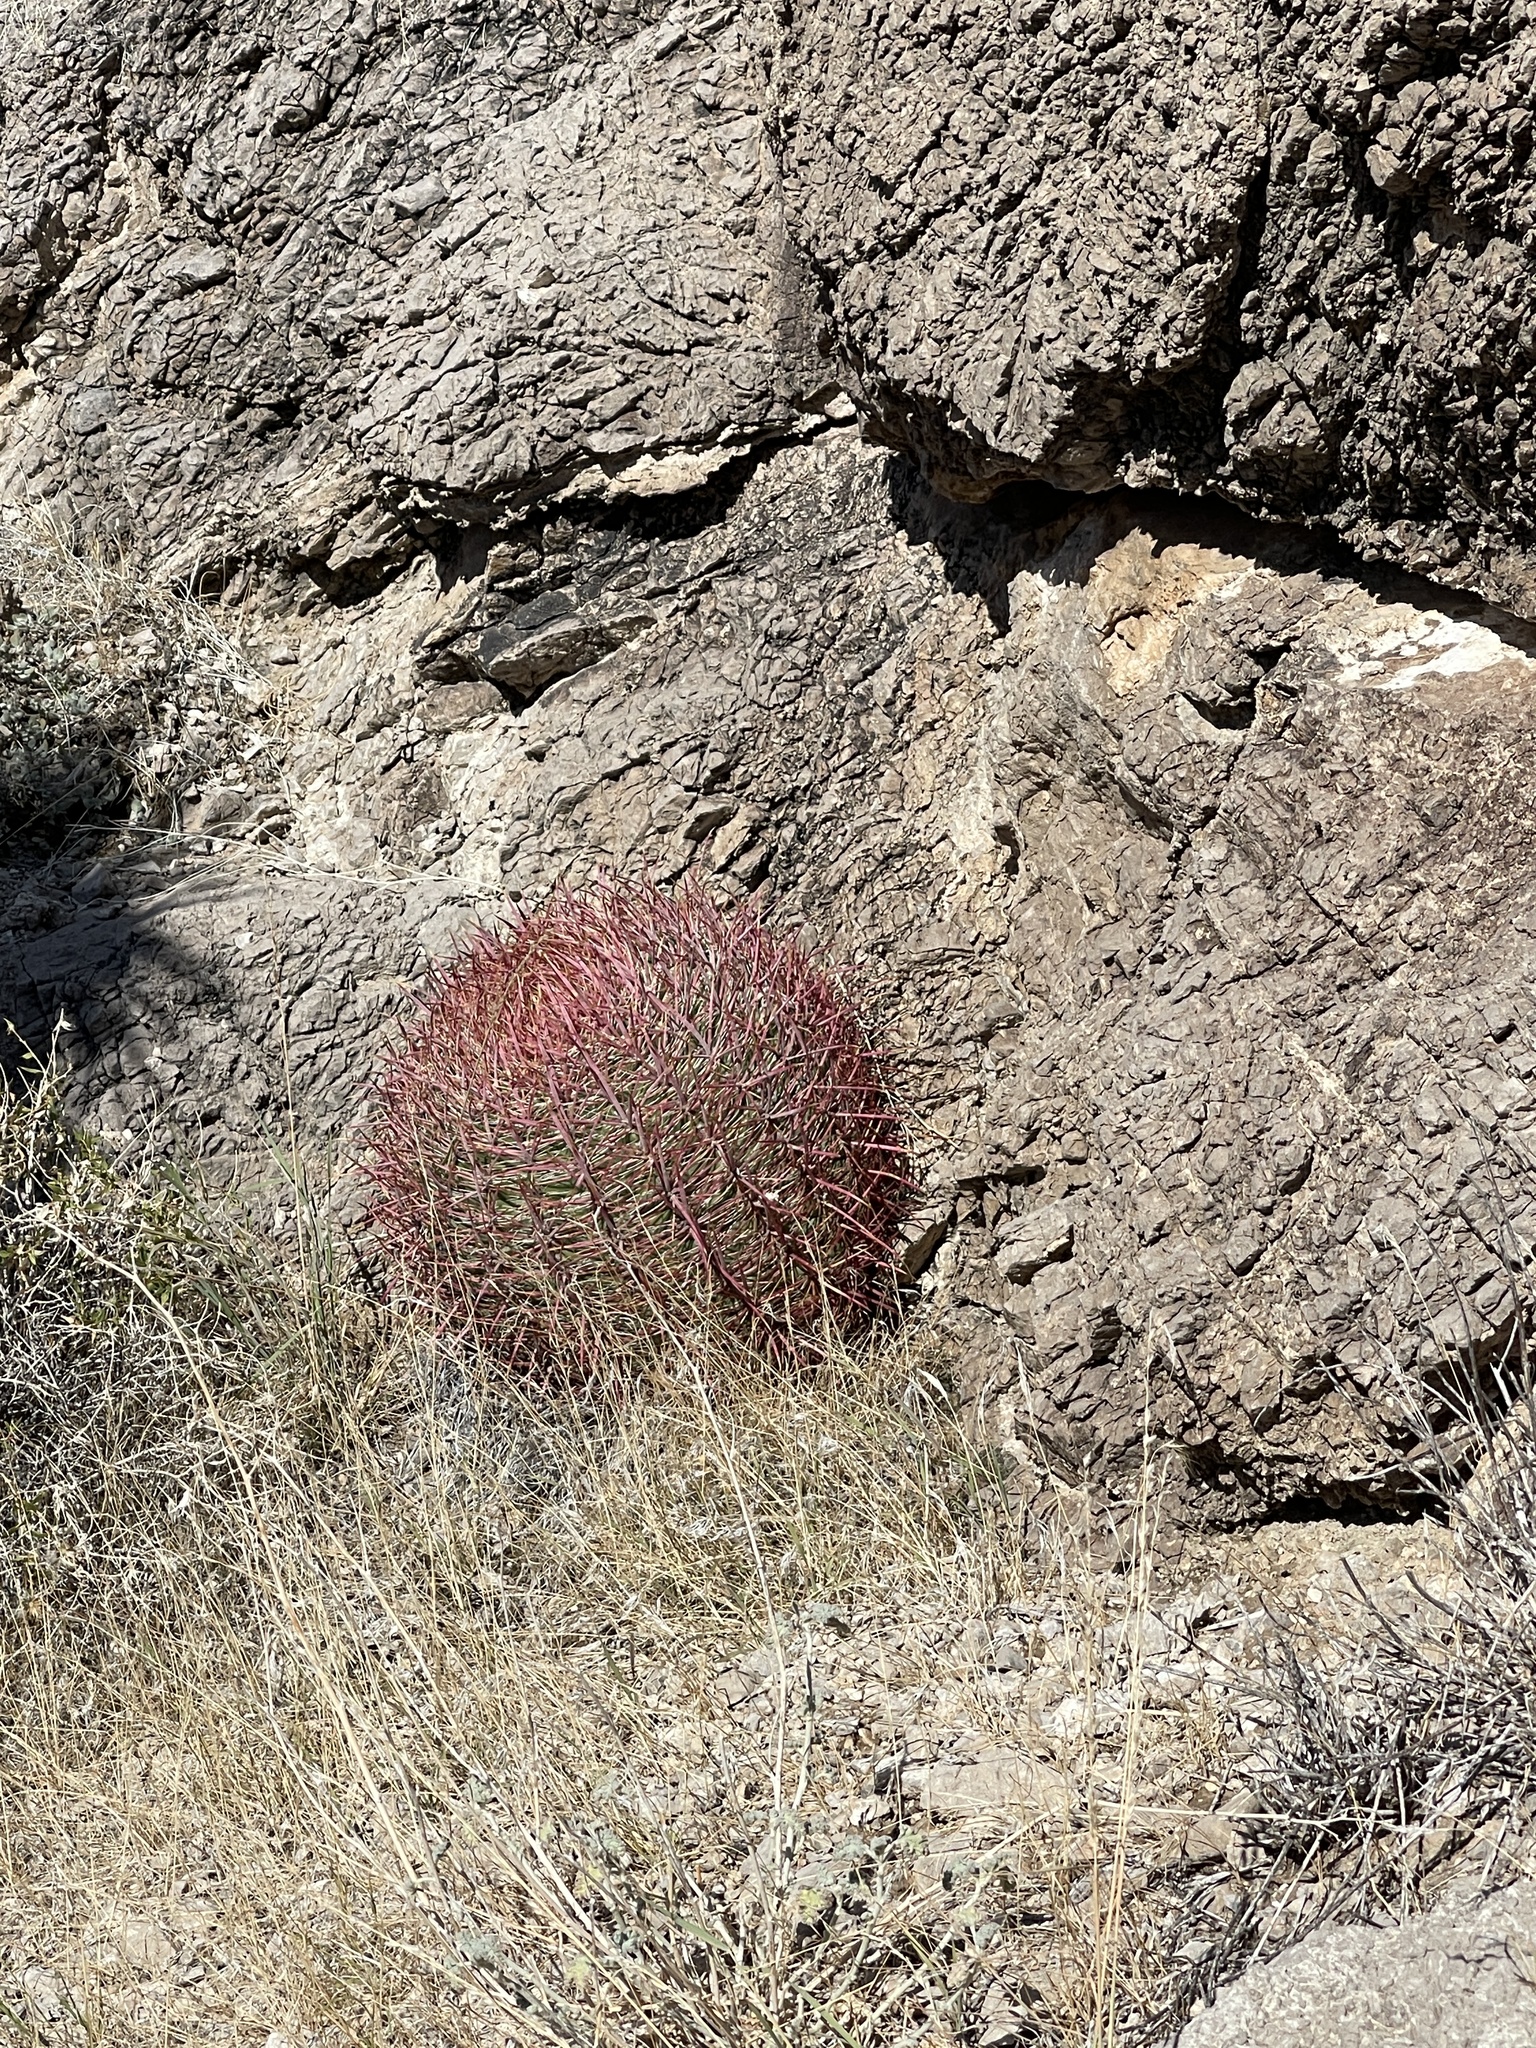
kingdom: Plantae
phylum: Tracheophyta
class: Magnoliopsida
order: Caryophyllales
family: Cactaceae
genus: Ferocactus
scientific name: Ferocactus cylindraceus
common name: California barrel cactus
